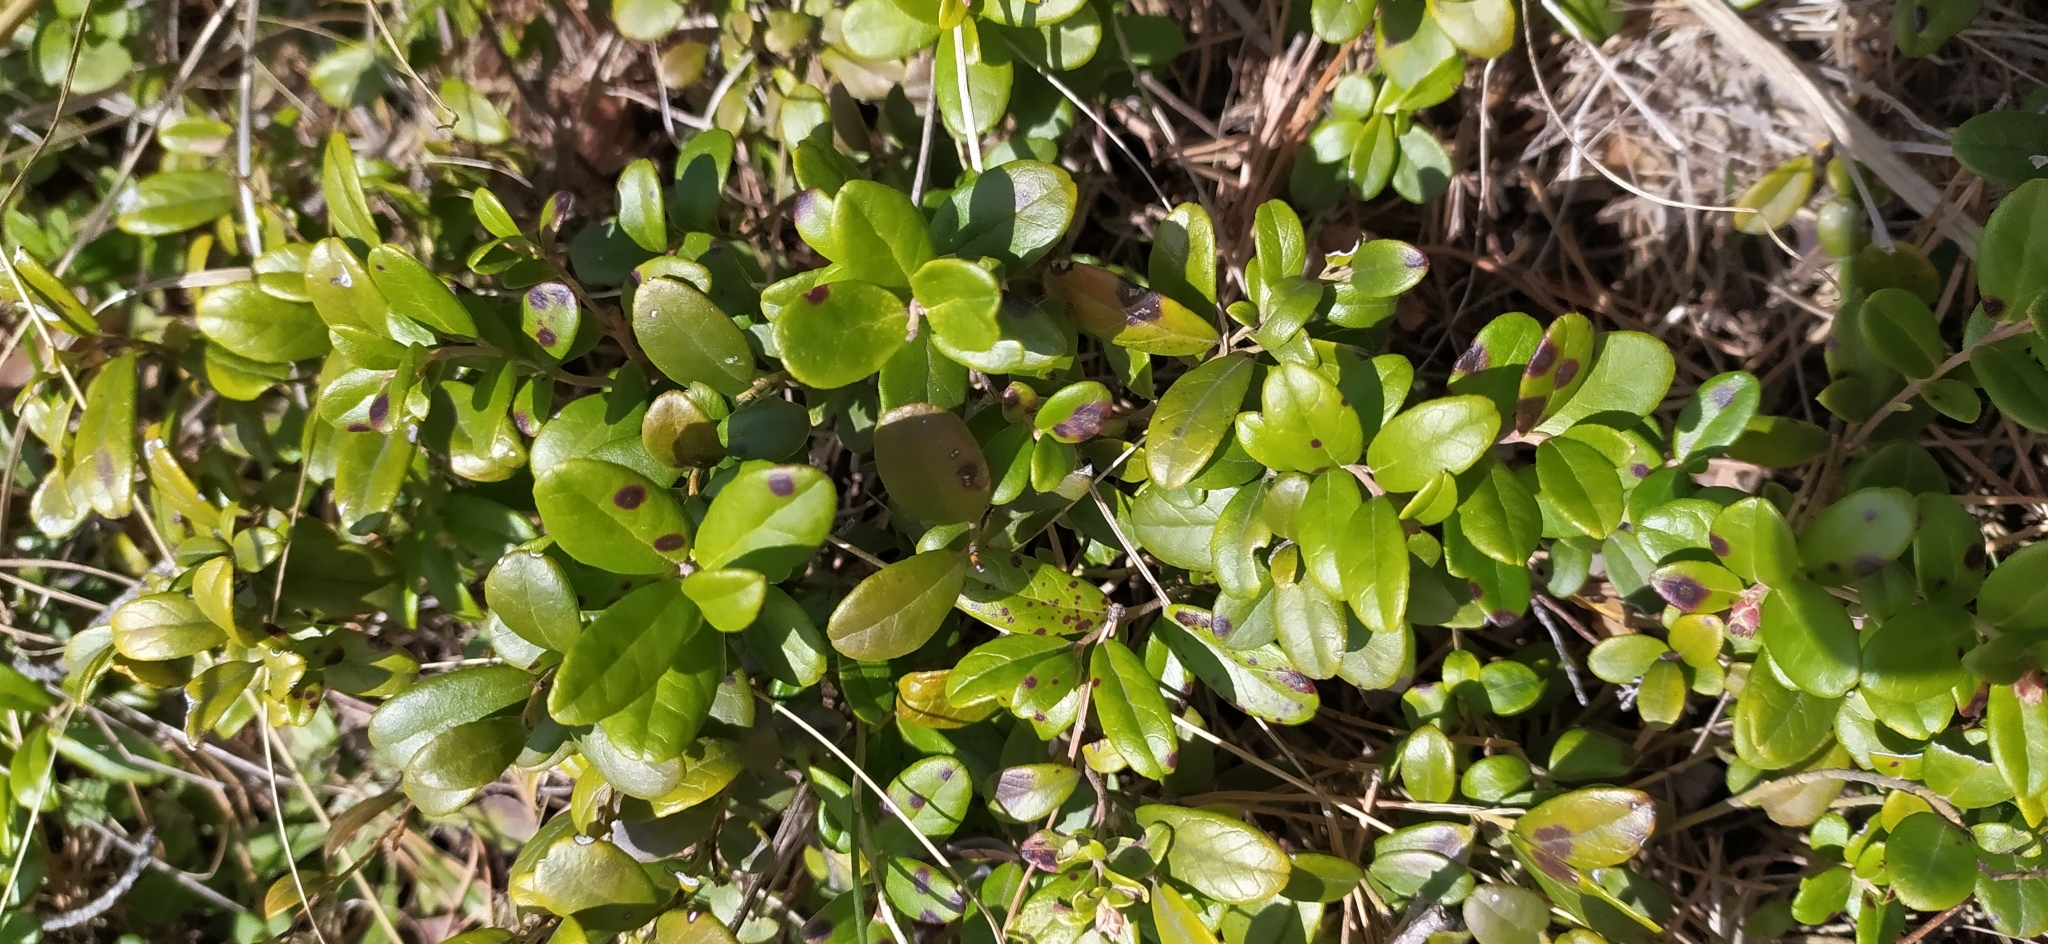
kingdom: Plantae
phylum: Tracheophyta
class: Magnoliopsida
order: Ericales
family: Ericaceae
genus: Vaccinium
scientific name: Vaccinium vitis-idaea
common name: Cowberry
